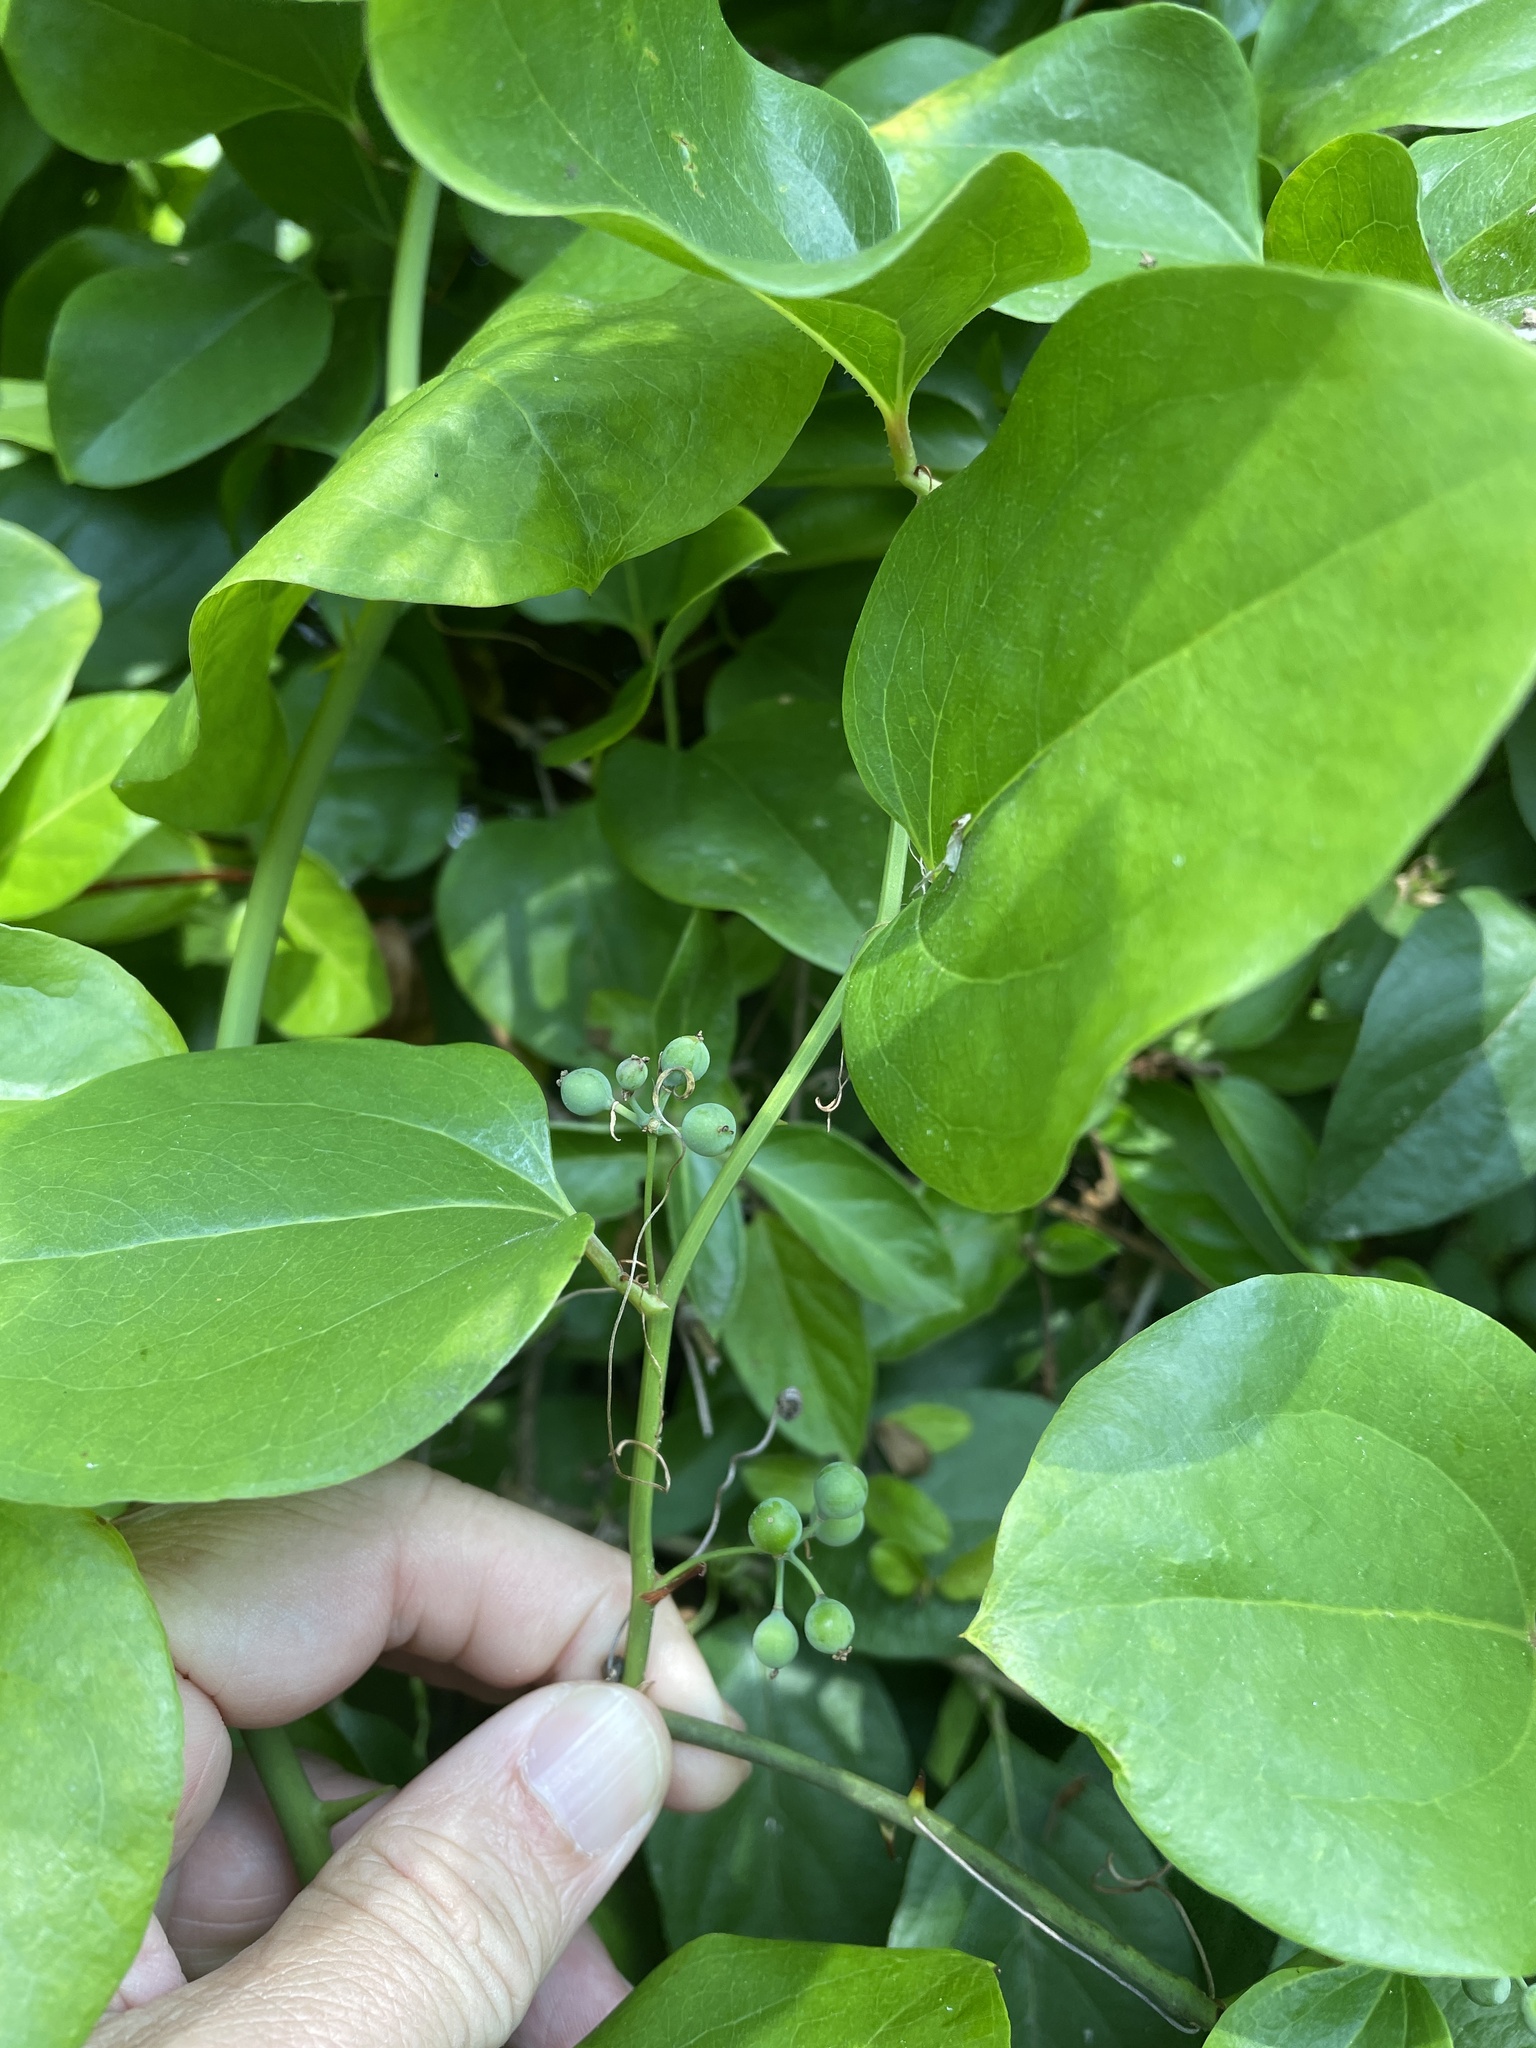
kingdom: Plantae
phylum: Tracheophyta
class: Liliopsida
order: Liliales
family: Smilacaceae
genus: Smilax
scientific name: Smilax rotundifolia
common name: Bullbriar
